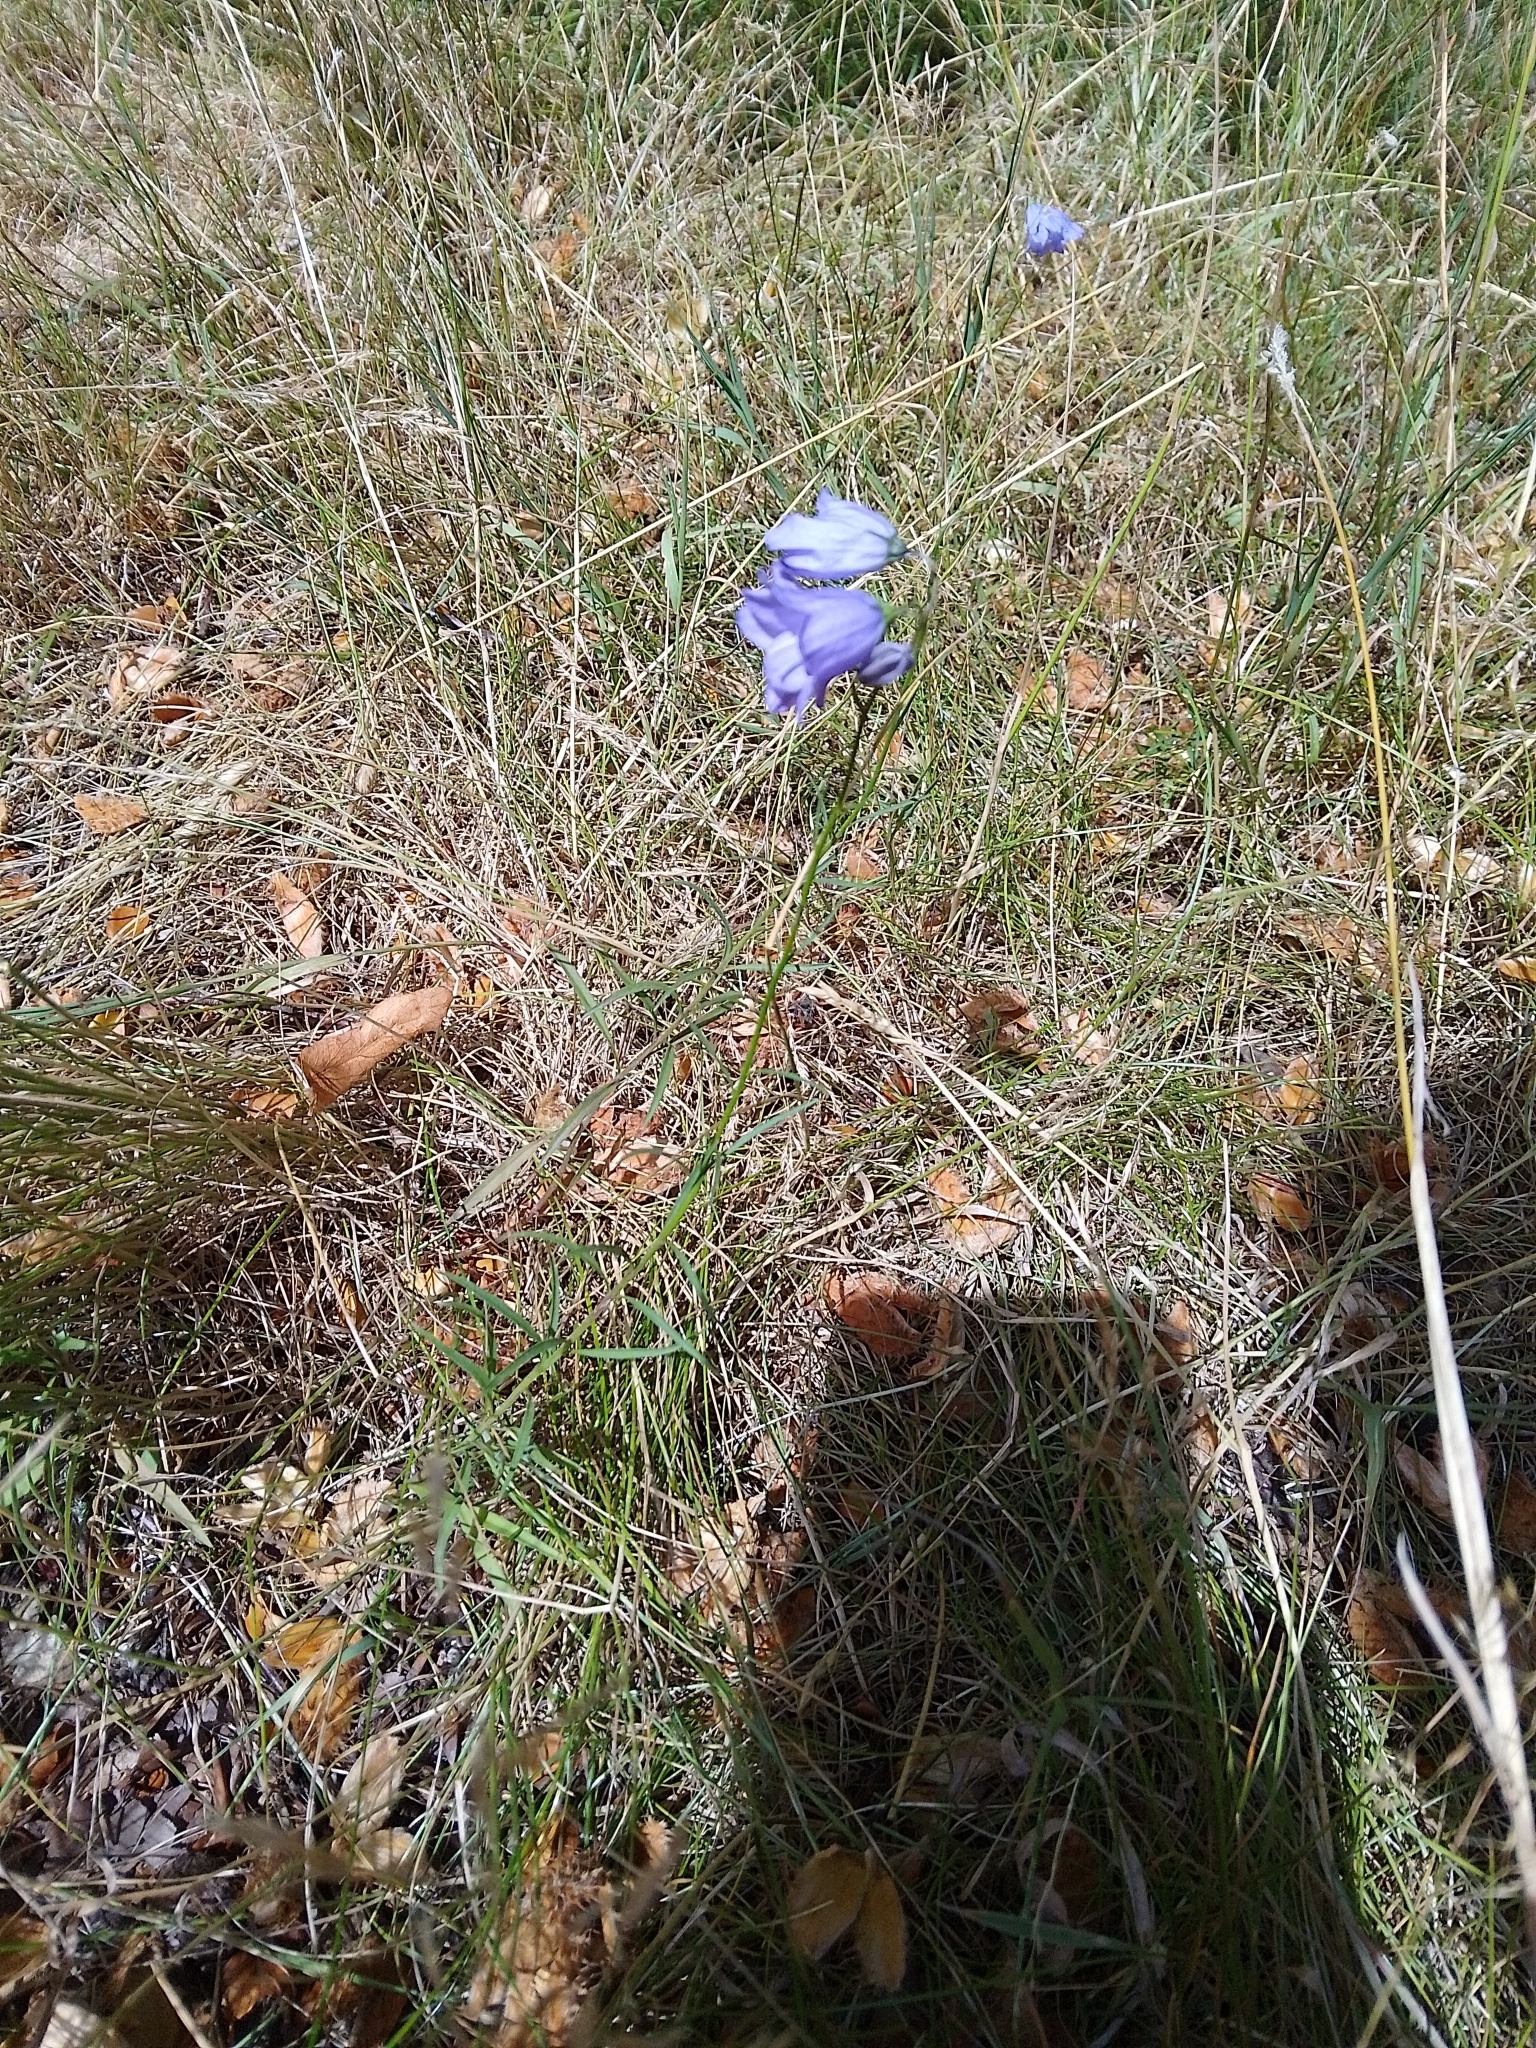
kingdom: Plantae
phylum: Tracheophyta
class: Magnoliopsida
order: Asterales
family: Campanulaceae
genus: Campanula
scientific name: Campanula rotundifolia
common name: Harebell
